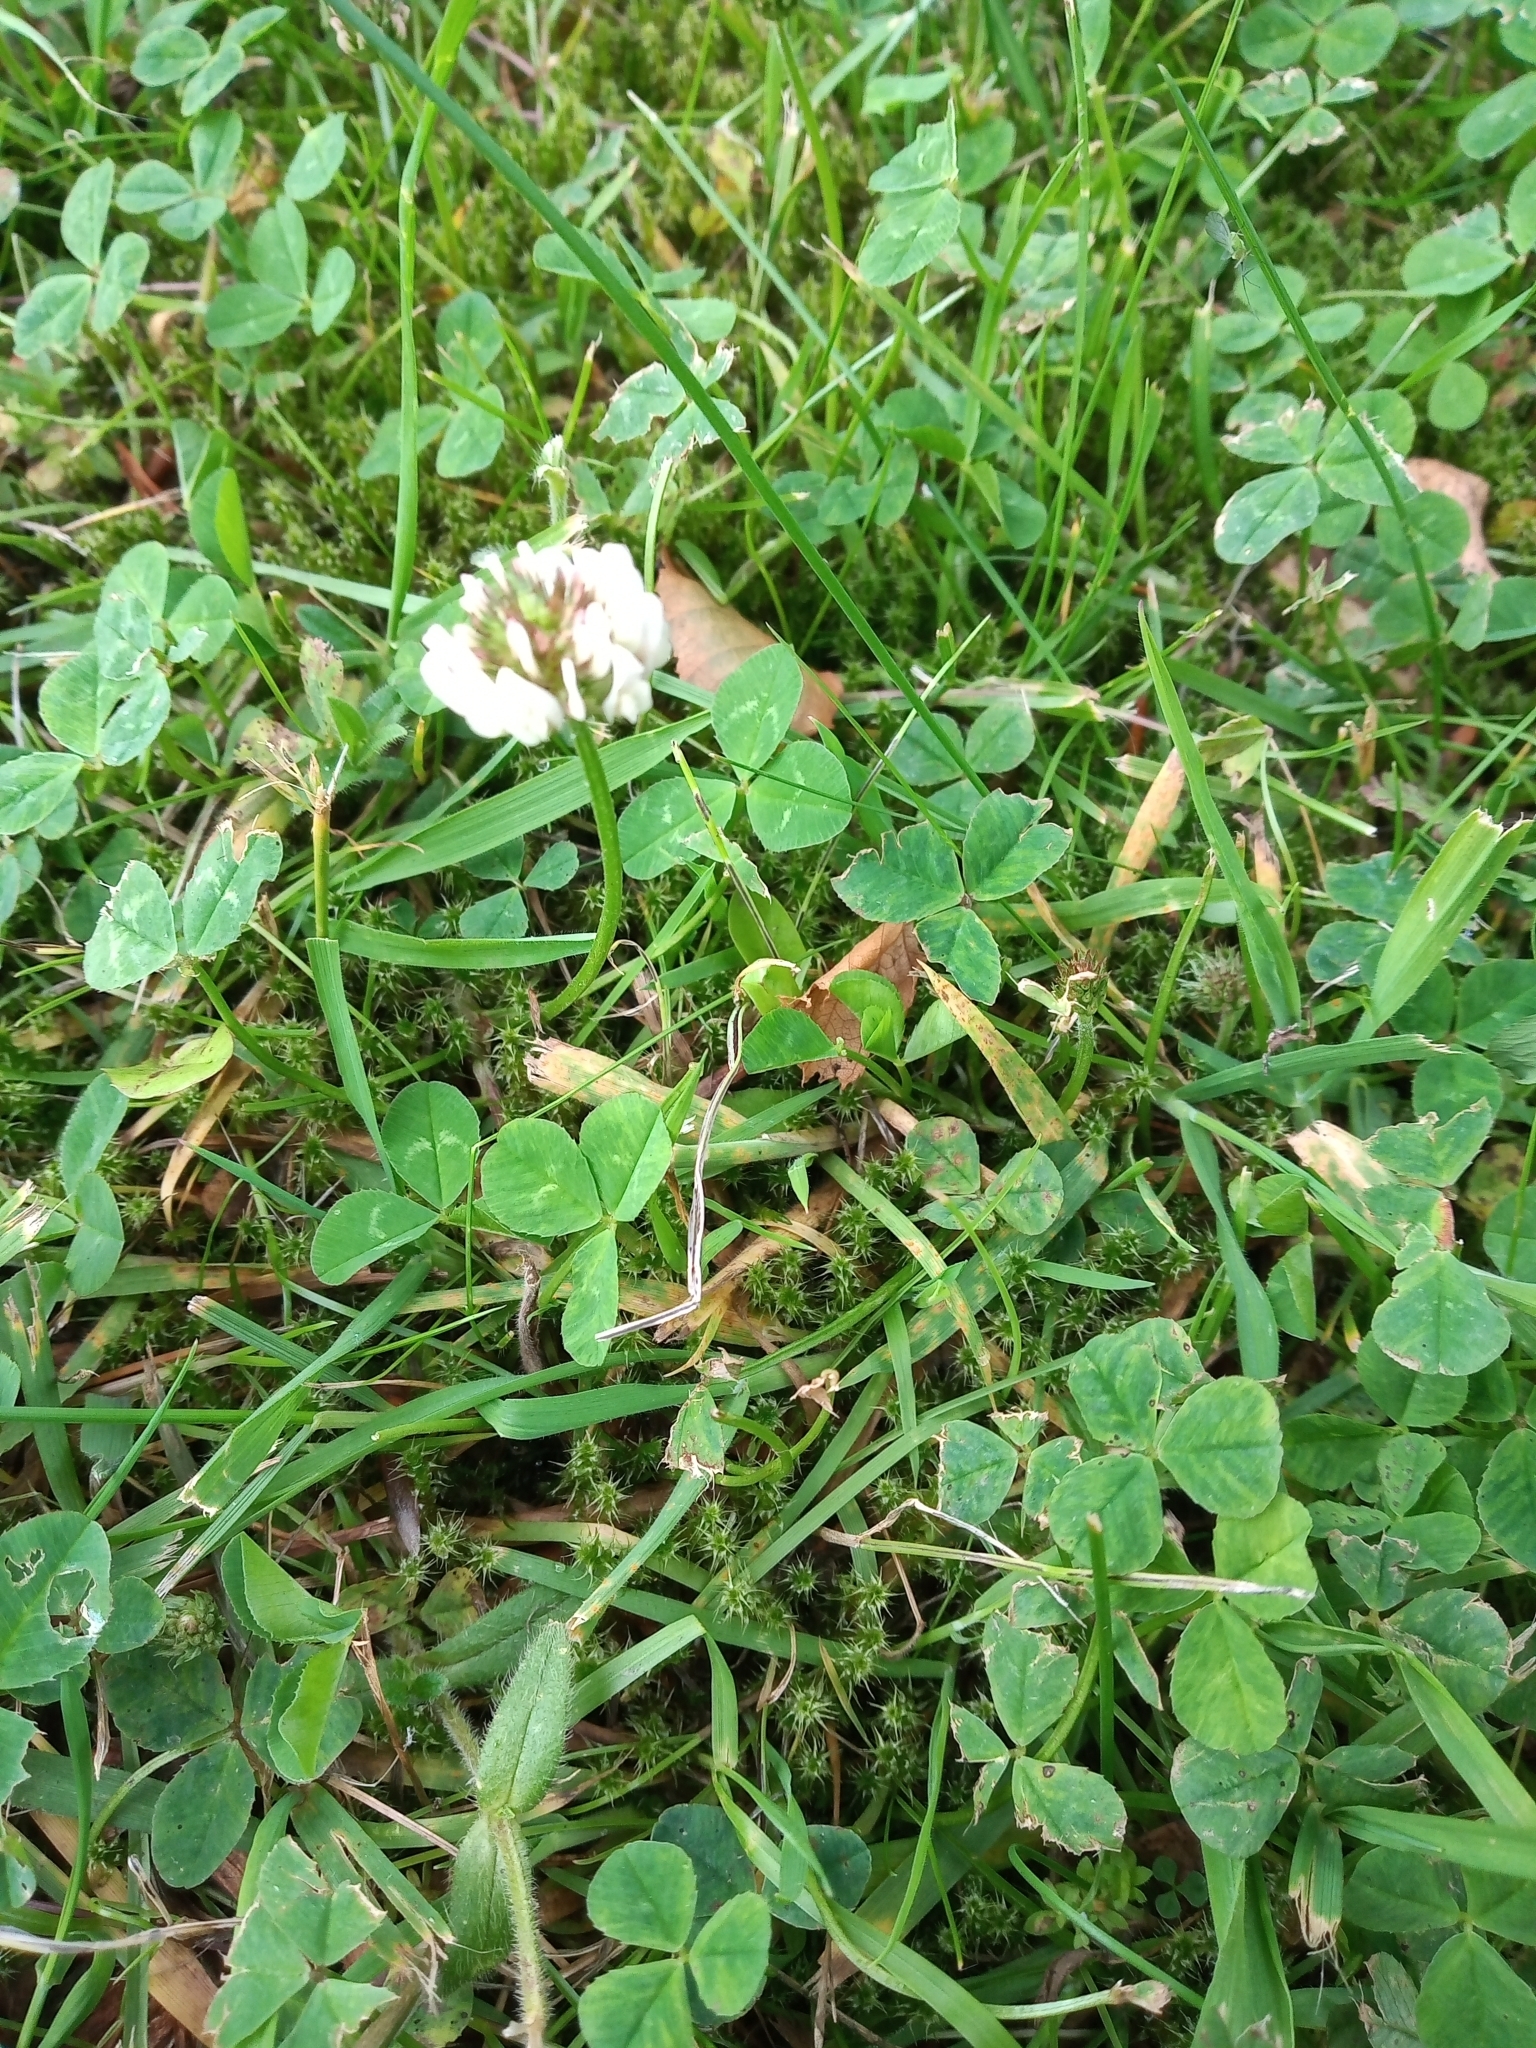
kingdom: Plantae
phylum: Tracheophyta
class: Magnoliopsida
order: Fabales
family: Fabaceae
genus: Trifolium
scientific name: Trifolium repens
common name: White clover
